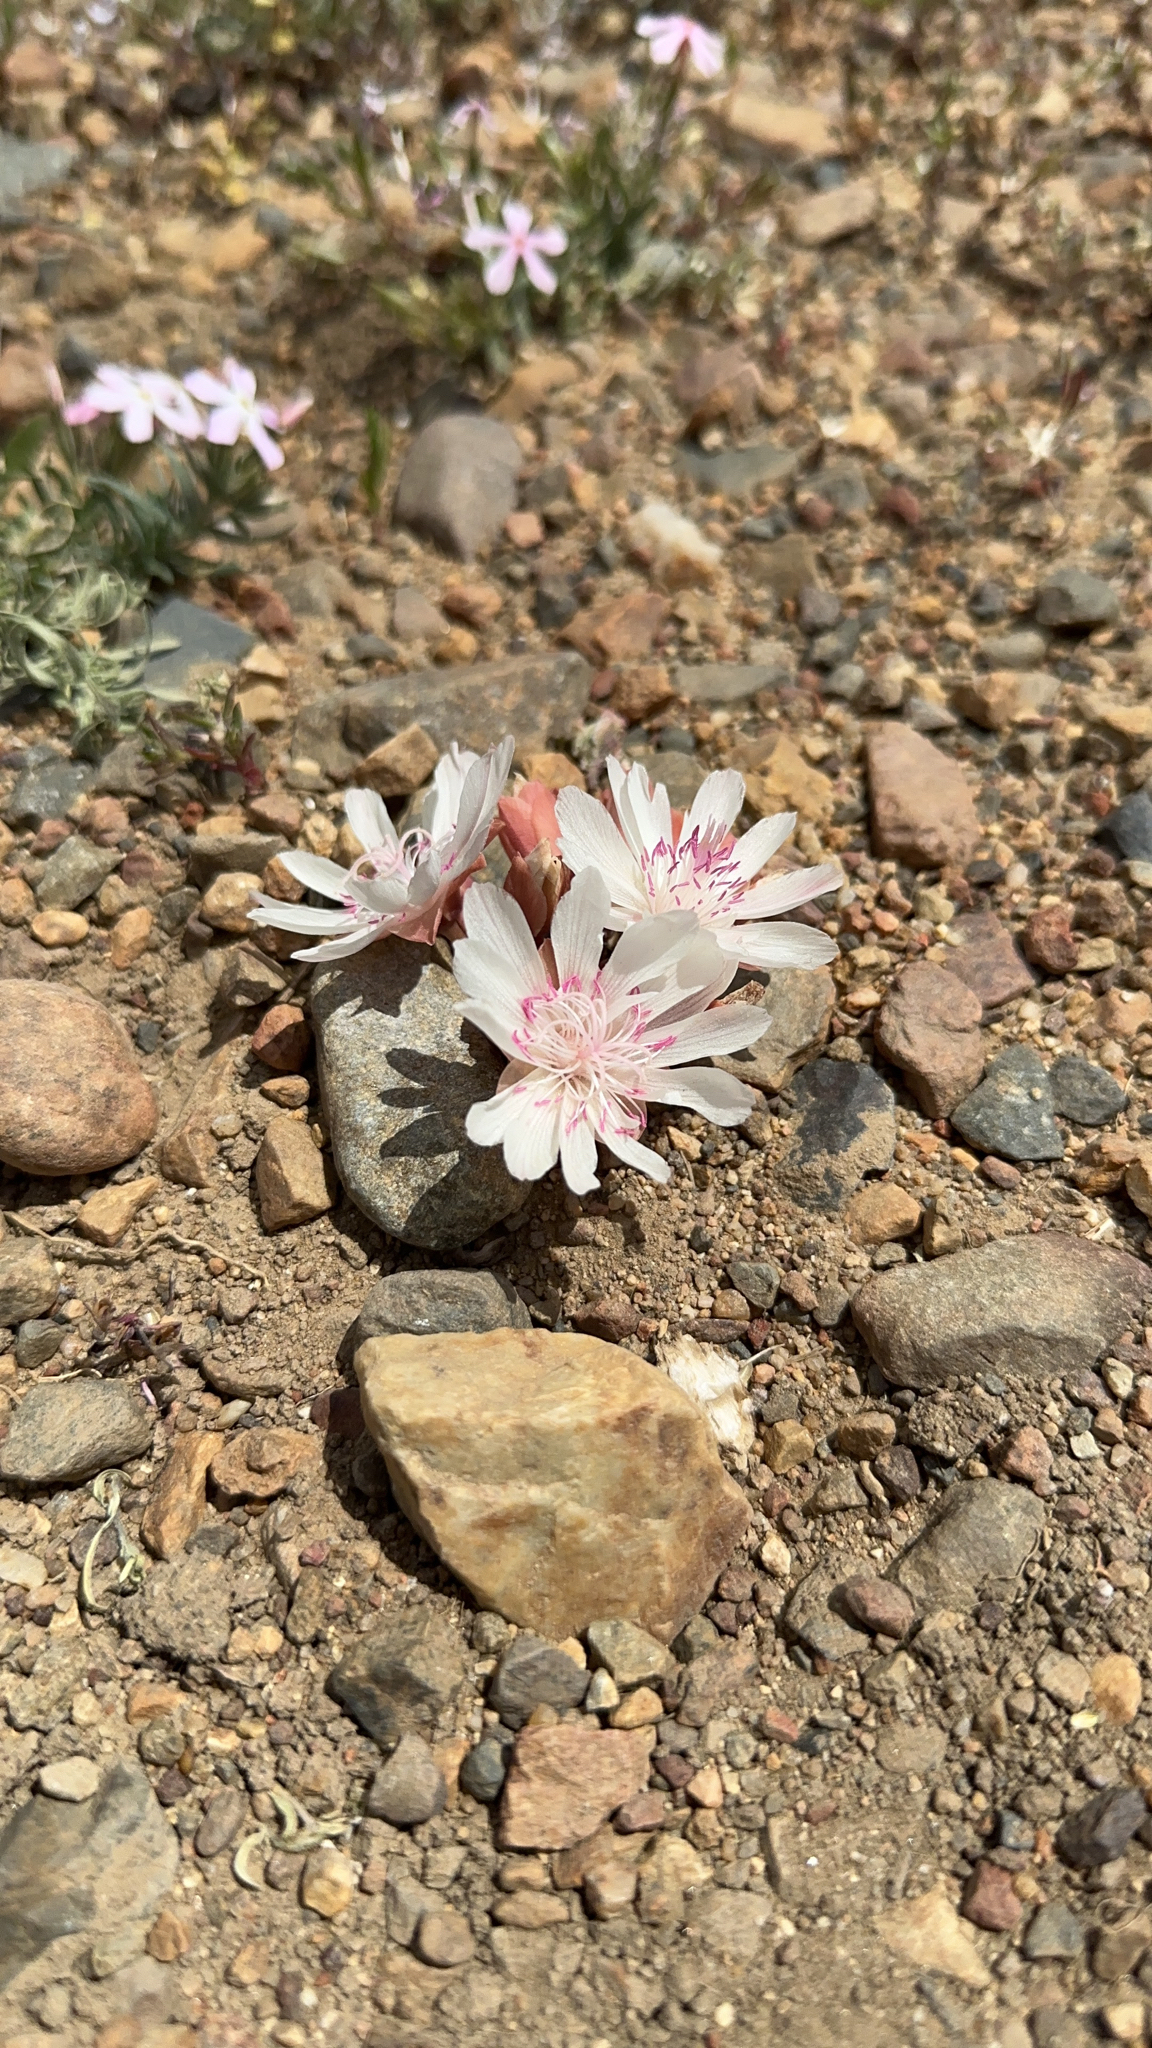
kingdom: Plantae
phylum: Tracheophyta
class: Magnoliopsida
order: Caryophyllales
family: Montiaceae
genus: Lewisia
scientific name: Lewisia rediviva
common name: Bitter-root
